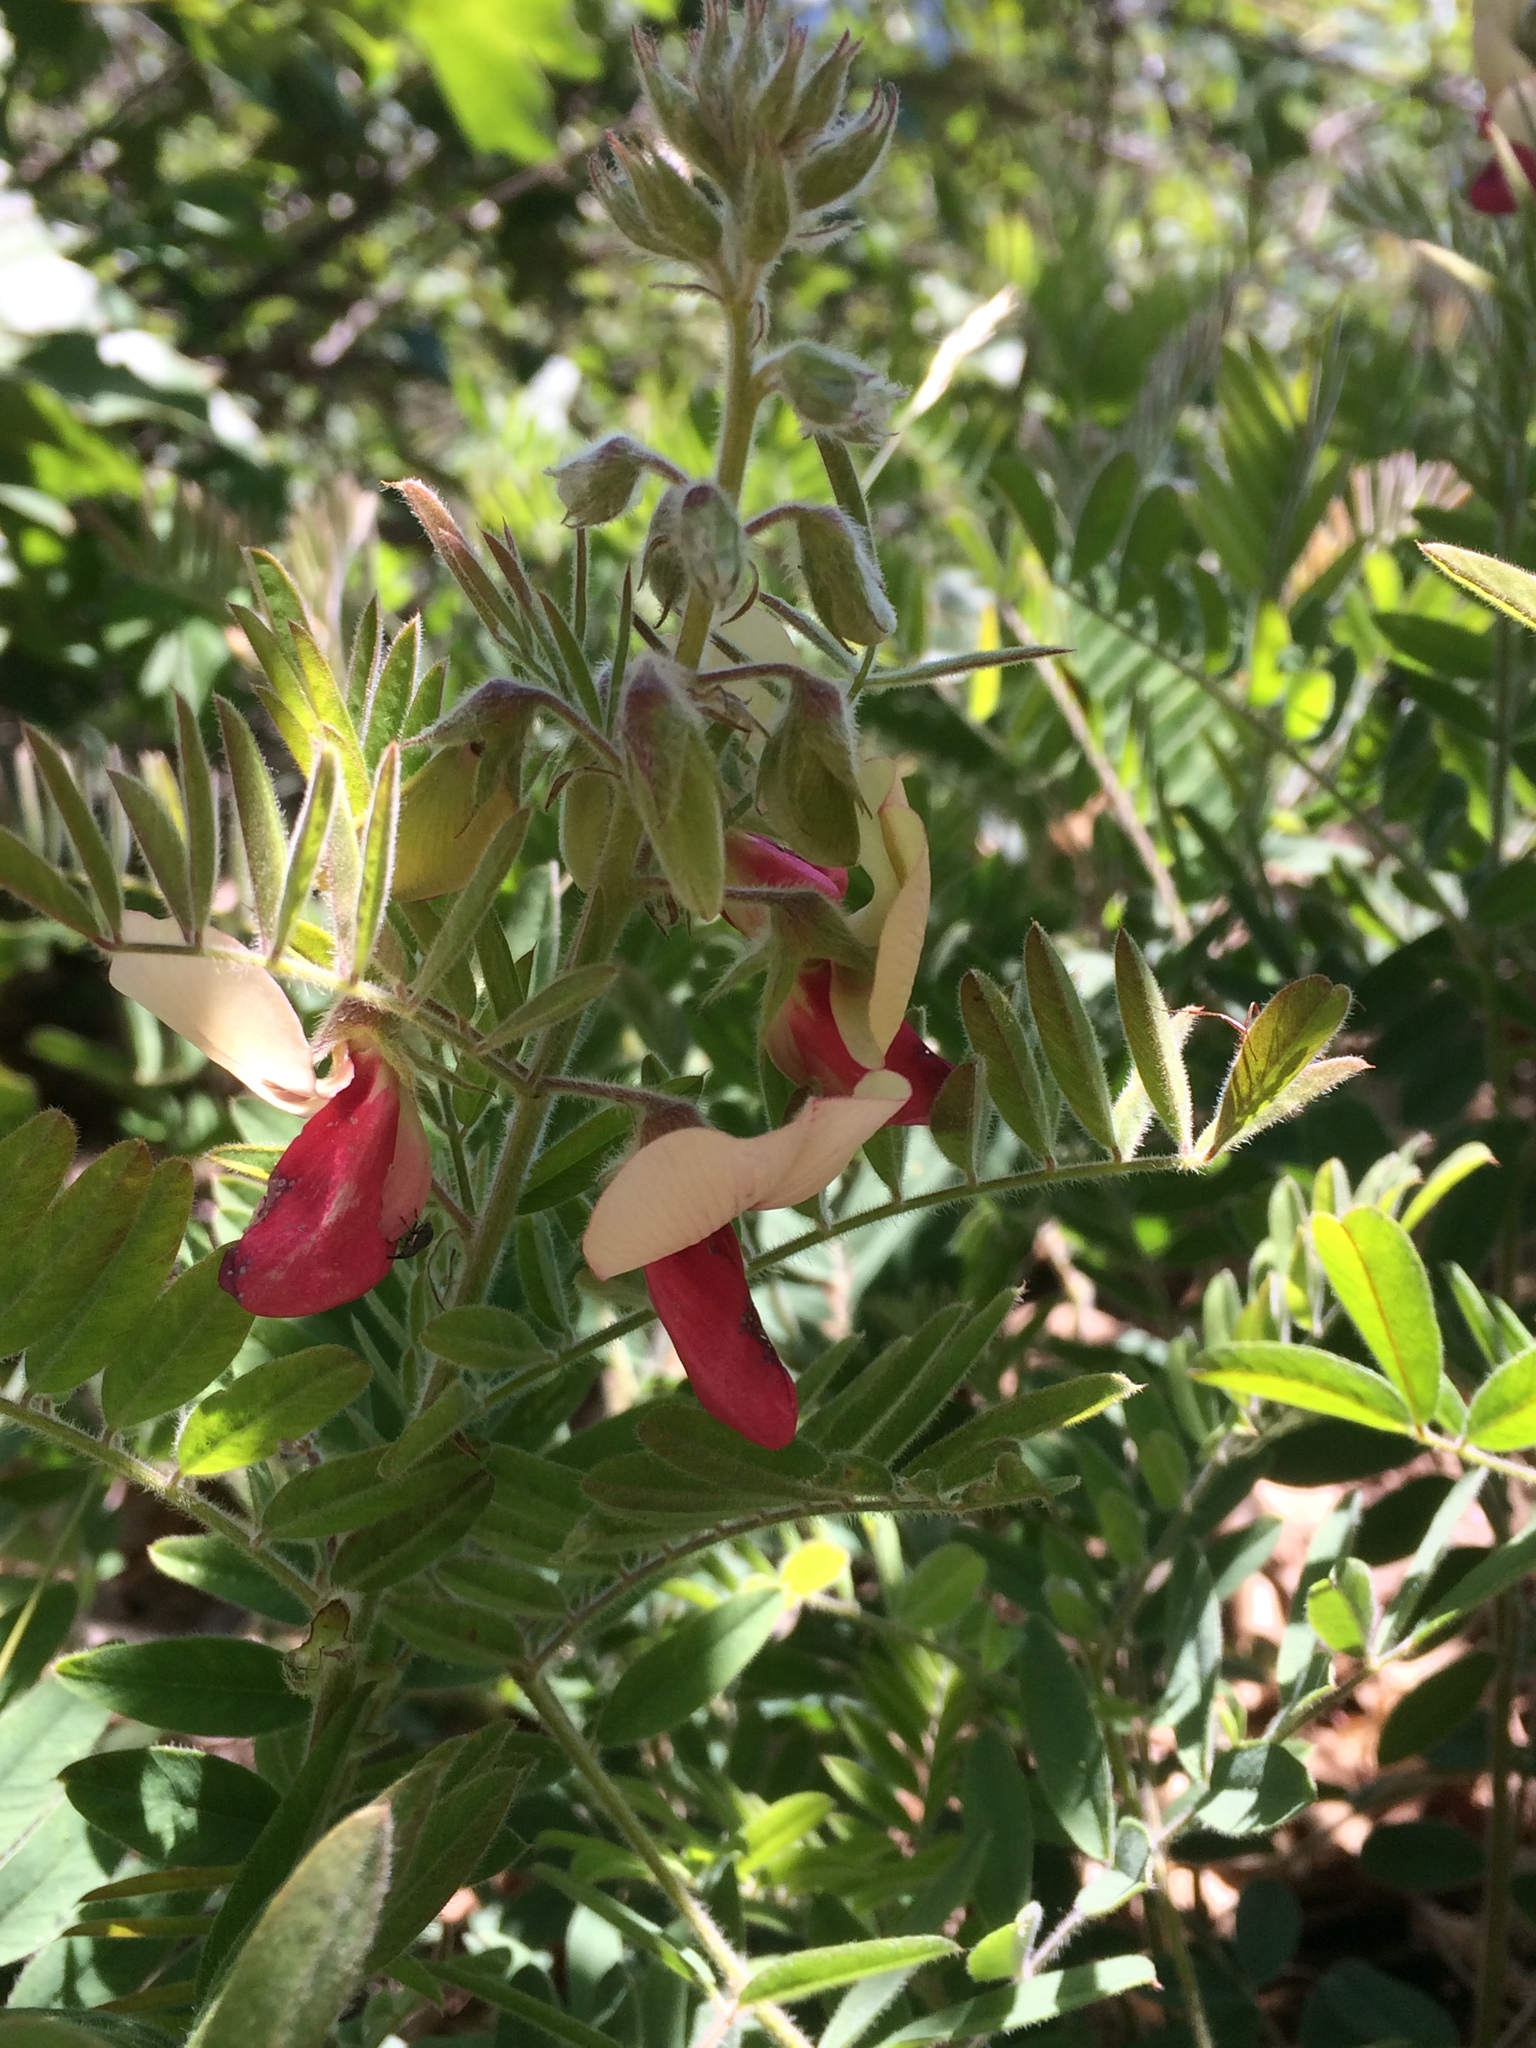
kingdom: Plantae
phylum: Tracheophyta
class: Magnoliopsida
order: Fabales
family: Fabaceae
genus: Tephrosia
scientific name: Tephrosia virginiana
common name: Rabbit-pea
